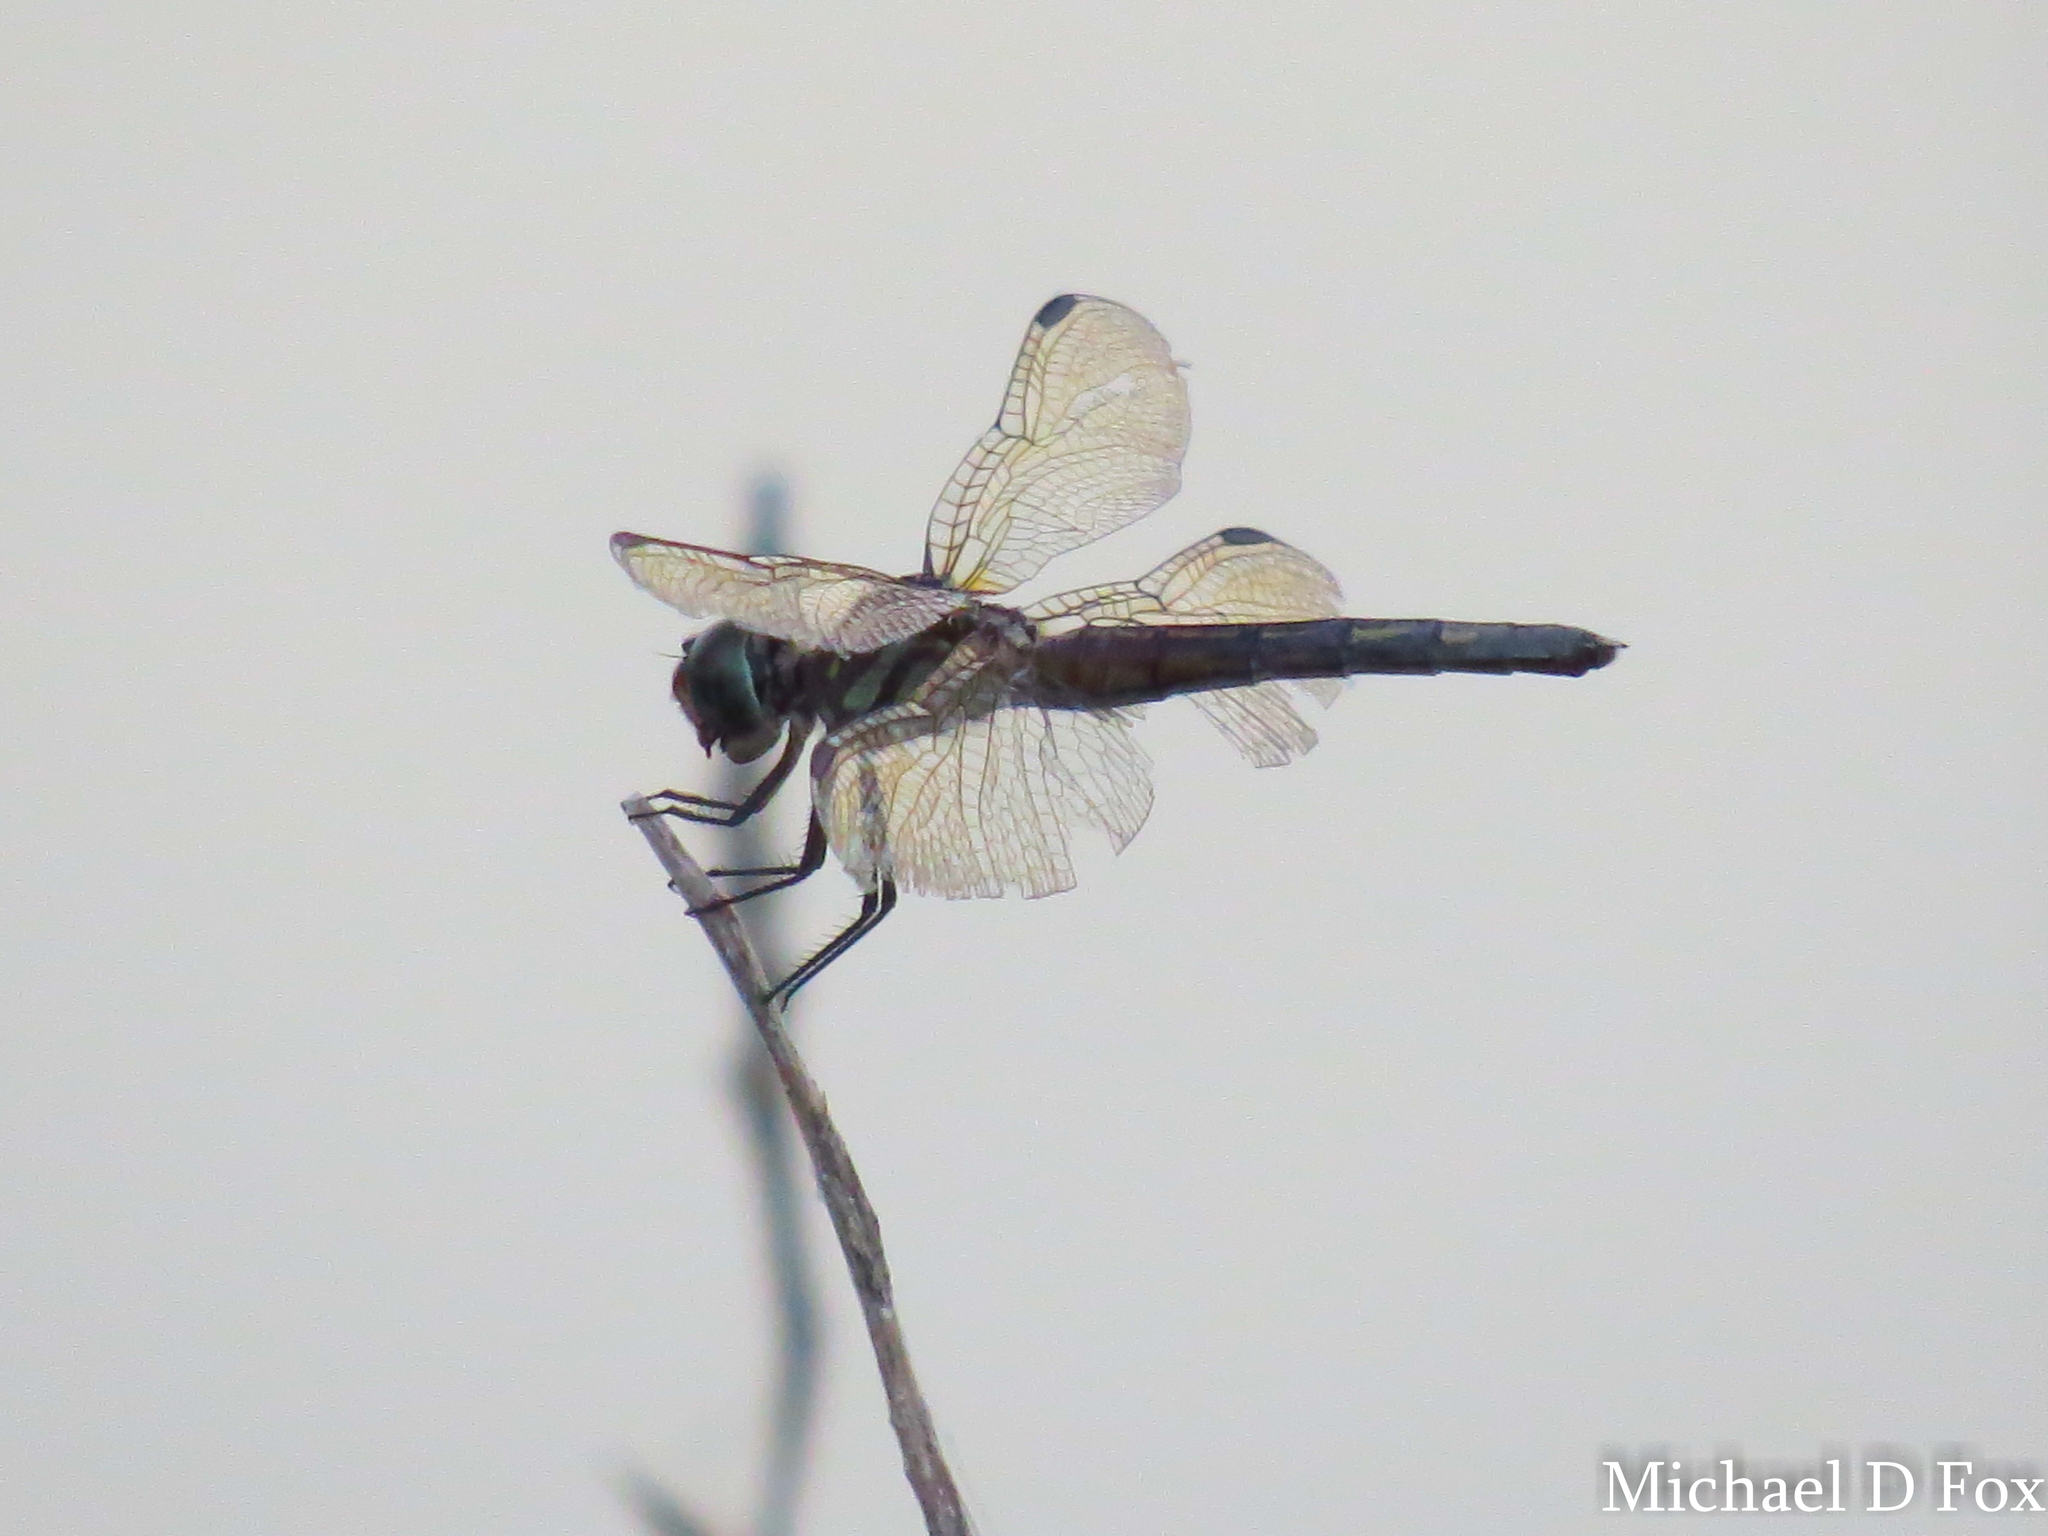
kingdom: Animalia
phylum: Arthropoda
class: Insecta
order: Odonata
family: Libellulidae
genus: Pachydiplax
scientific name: Pachydiplax longipennis
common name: Blue dasher
